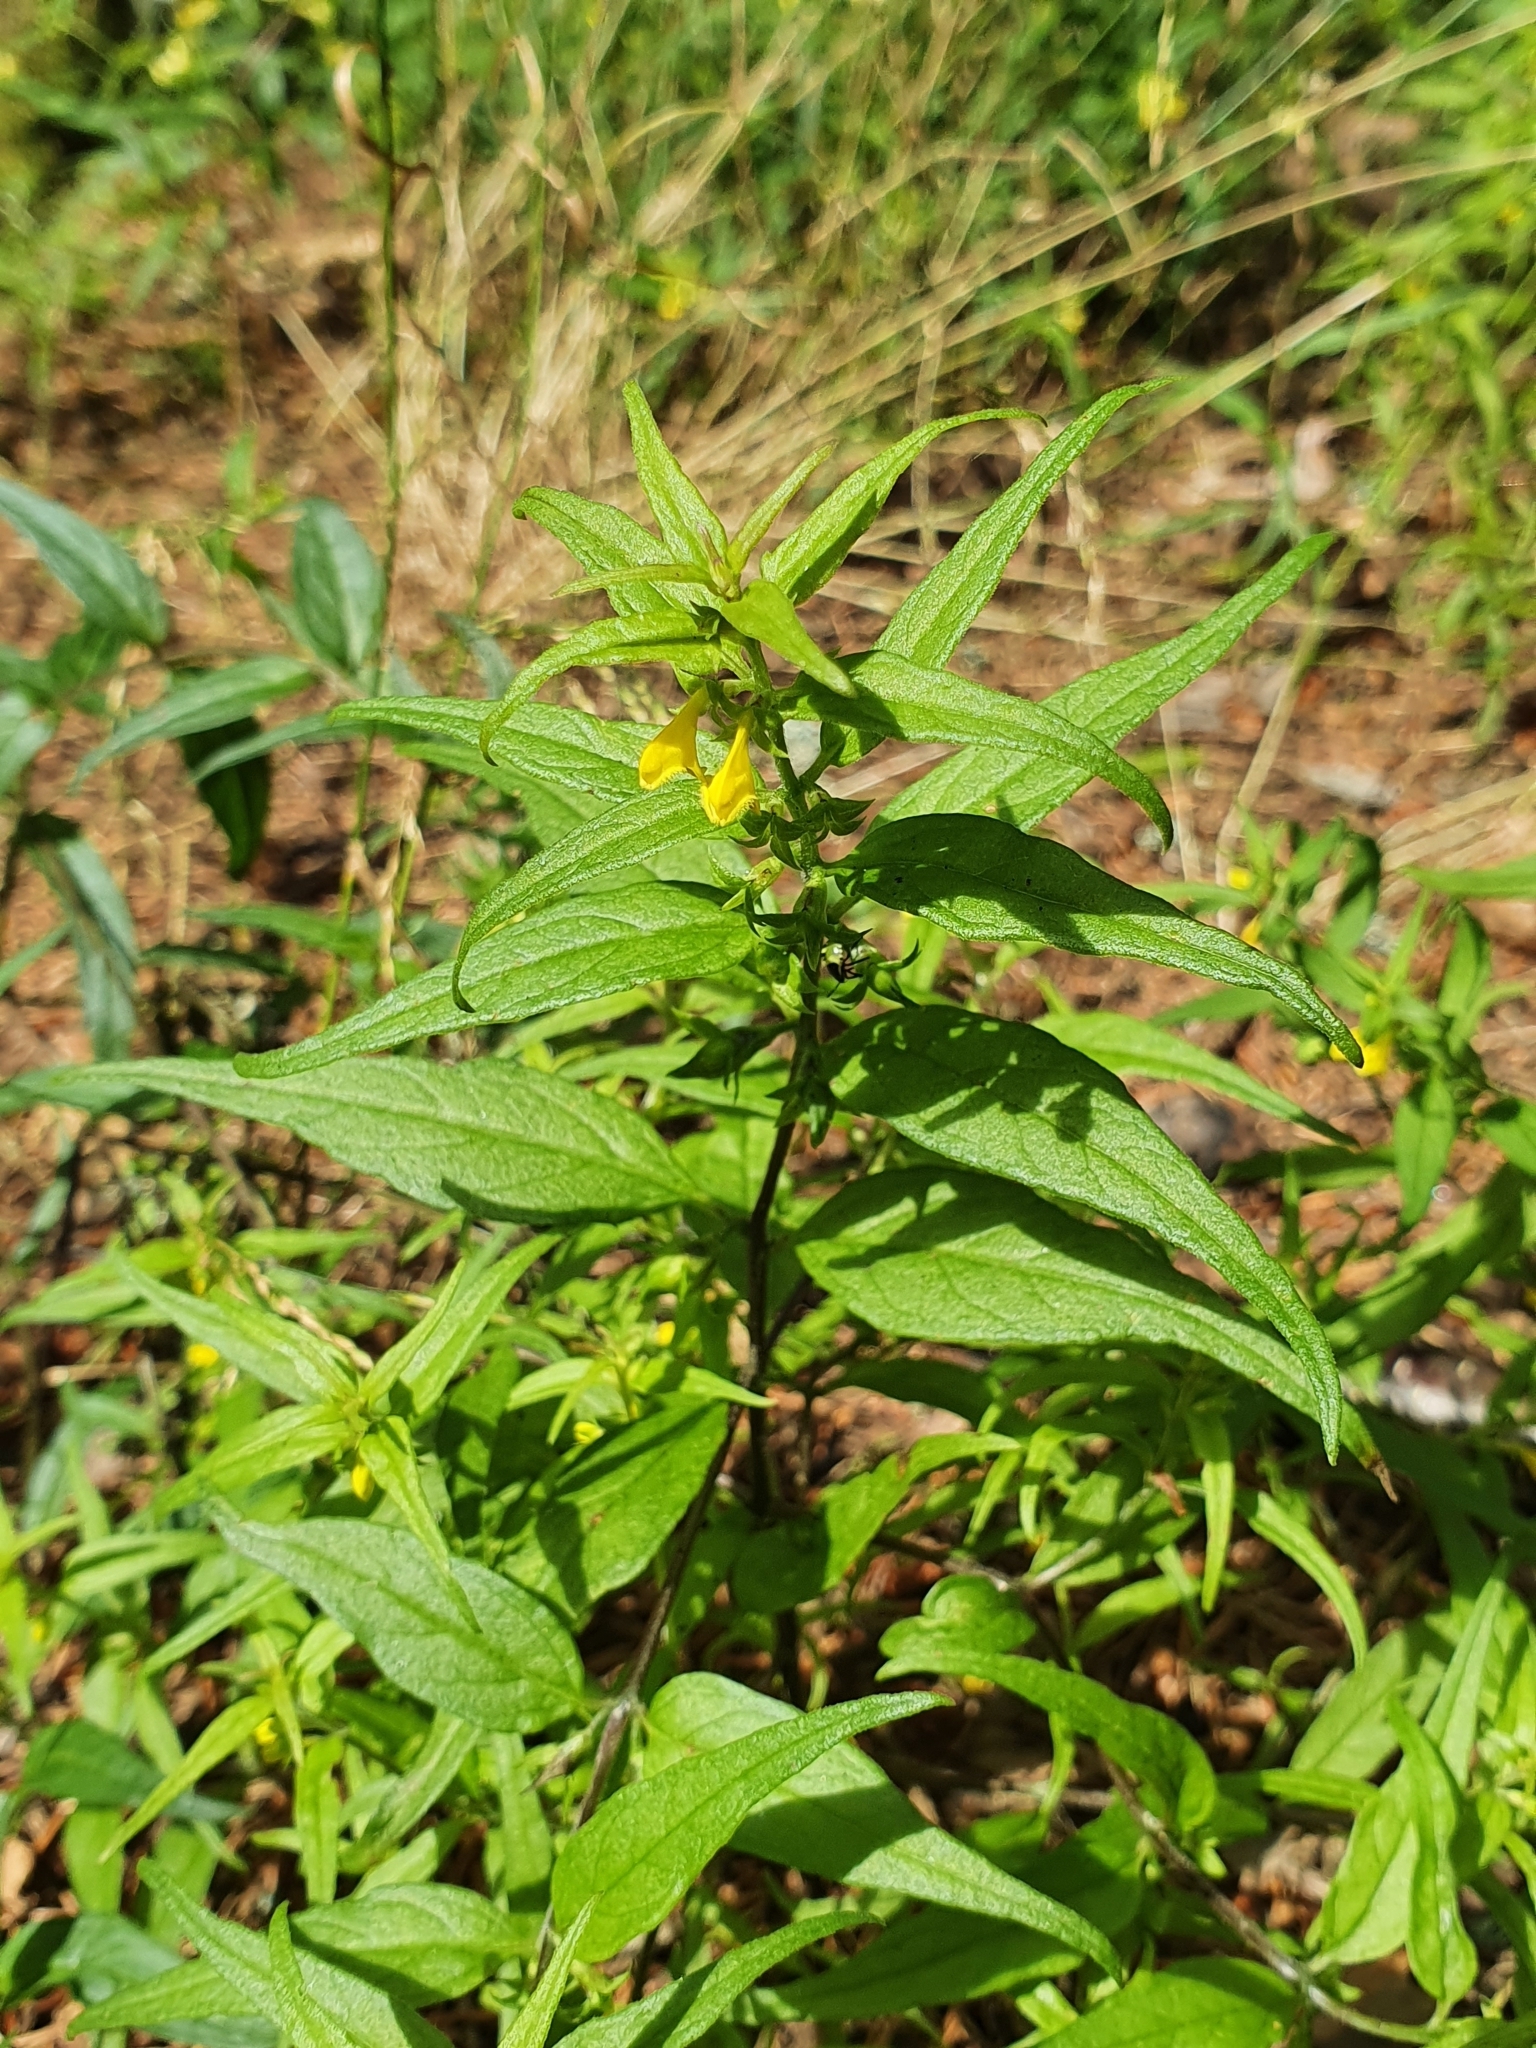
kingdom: Plantae
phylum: Tracheophyta
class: Magnoliopsida
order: Lamiales
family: Orobanchaceae
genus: Melampyrum
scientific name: Melampyrum sylvaticum
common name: Small cow-wheat
